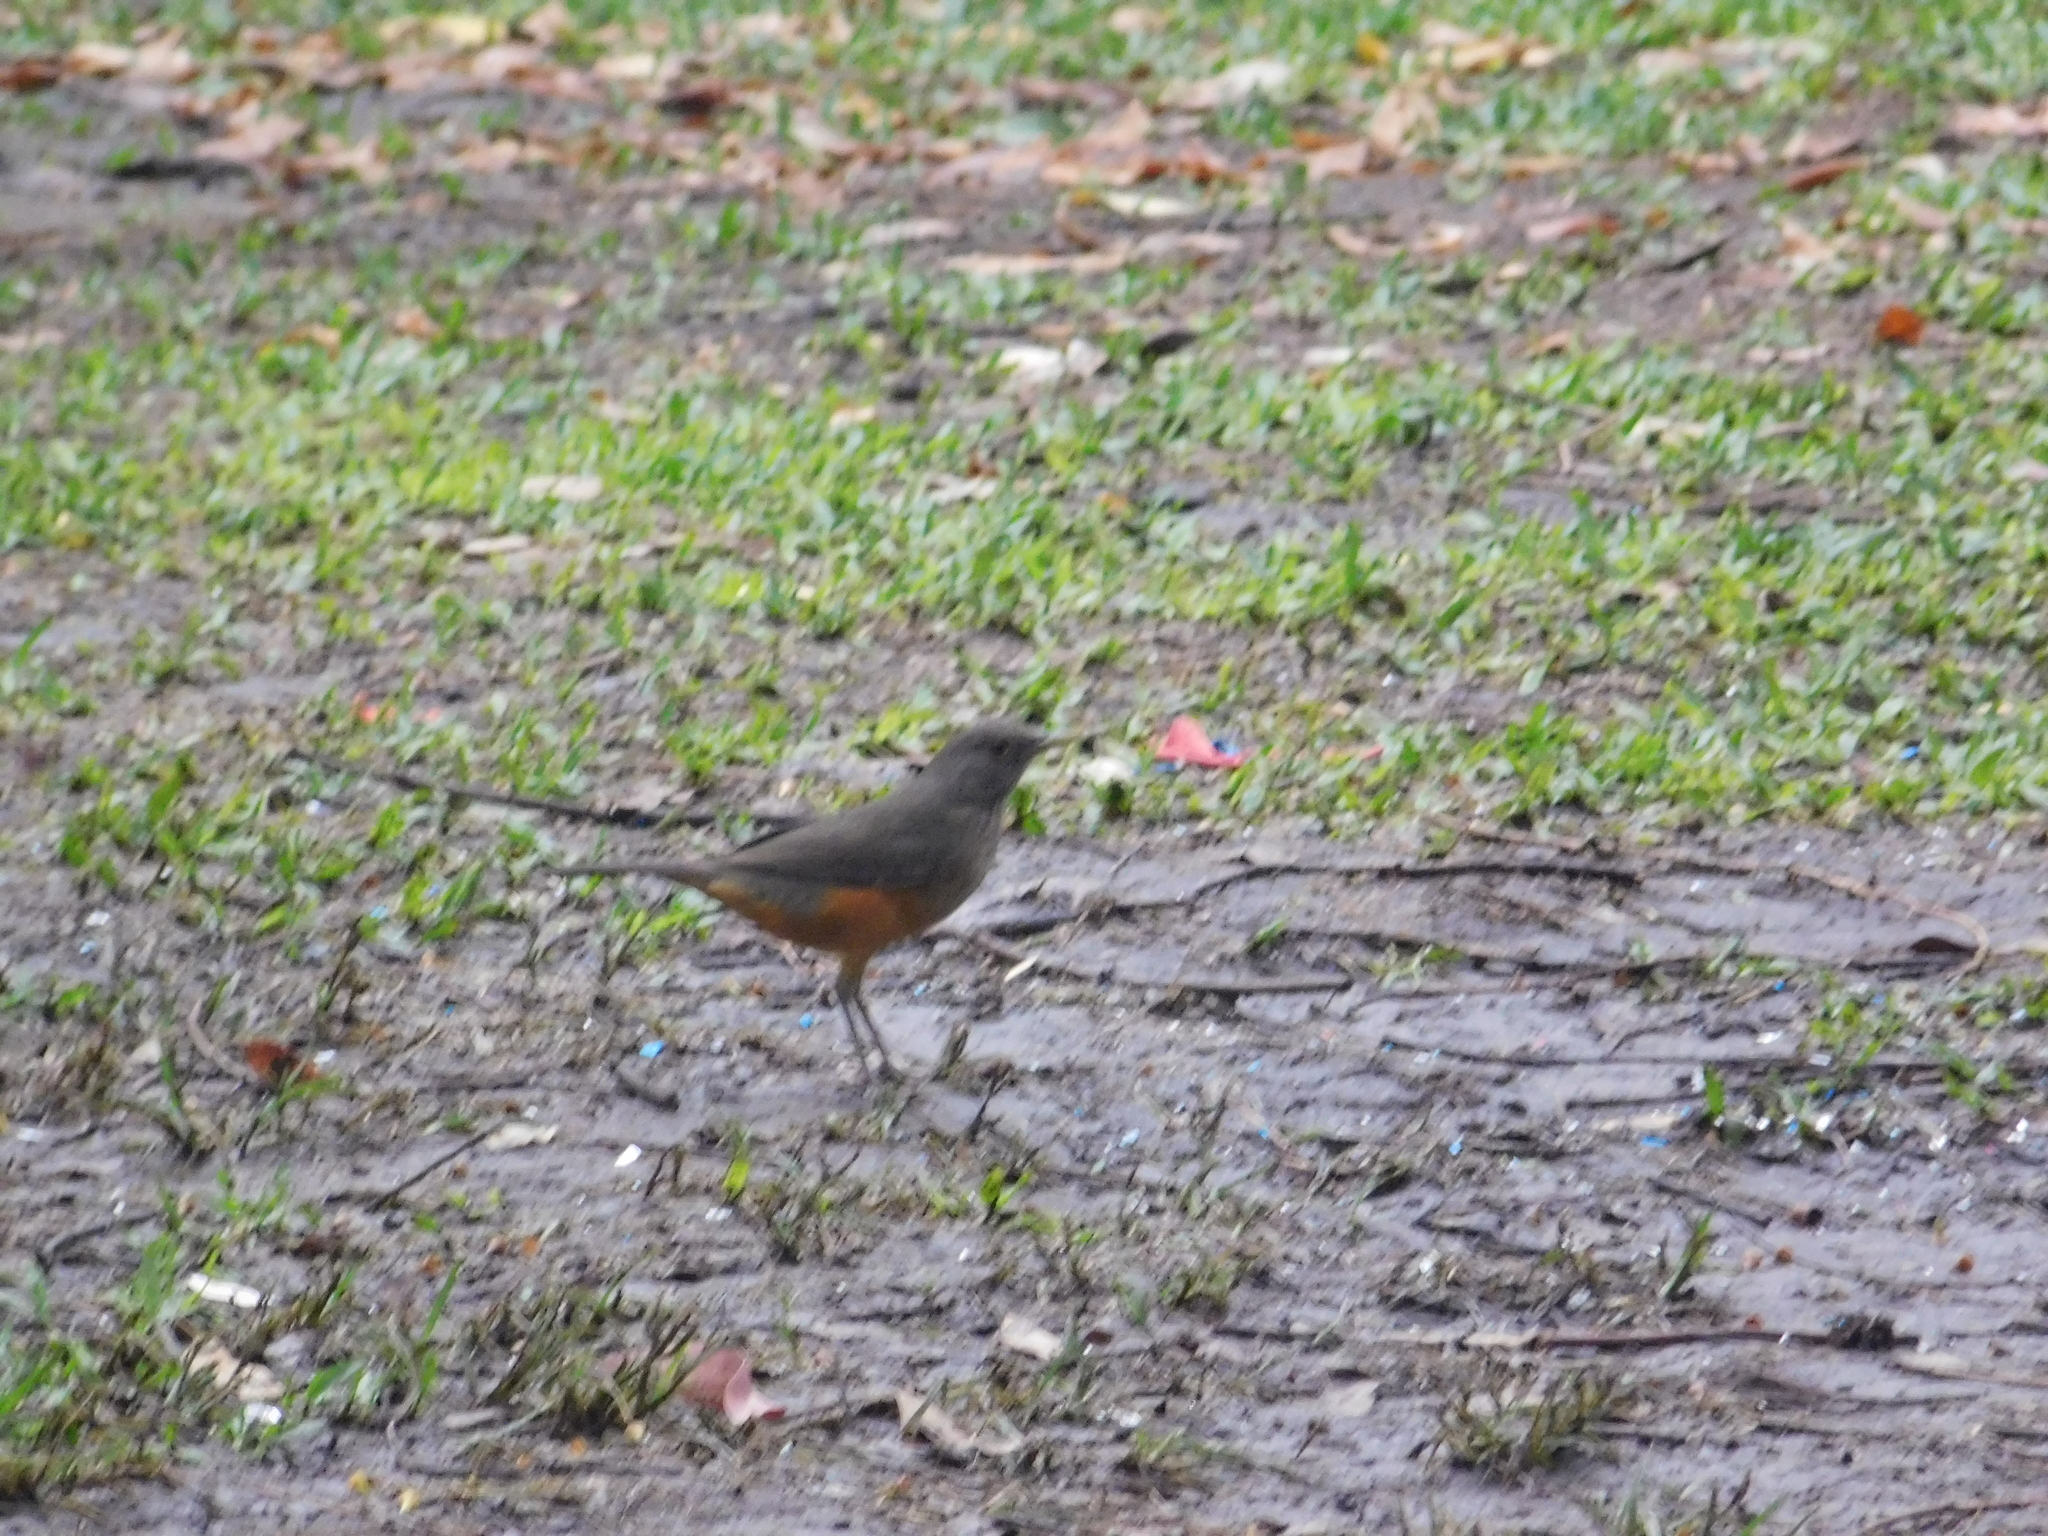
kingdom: Animalia
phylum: Chordata
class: Aves
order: Passeriformes
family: Turdidae
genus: Turdus
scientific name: Turdus rufiventris
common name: Rufous-bellied thrush
